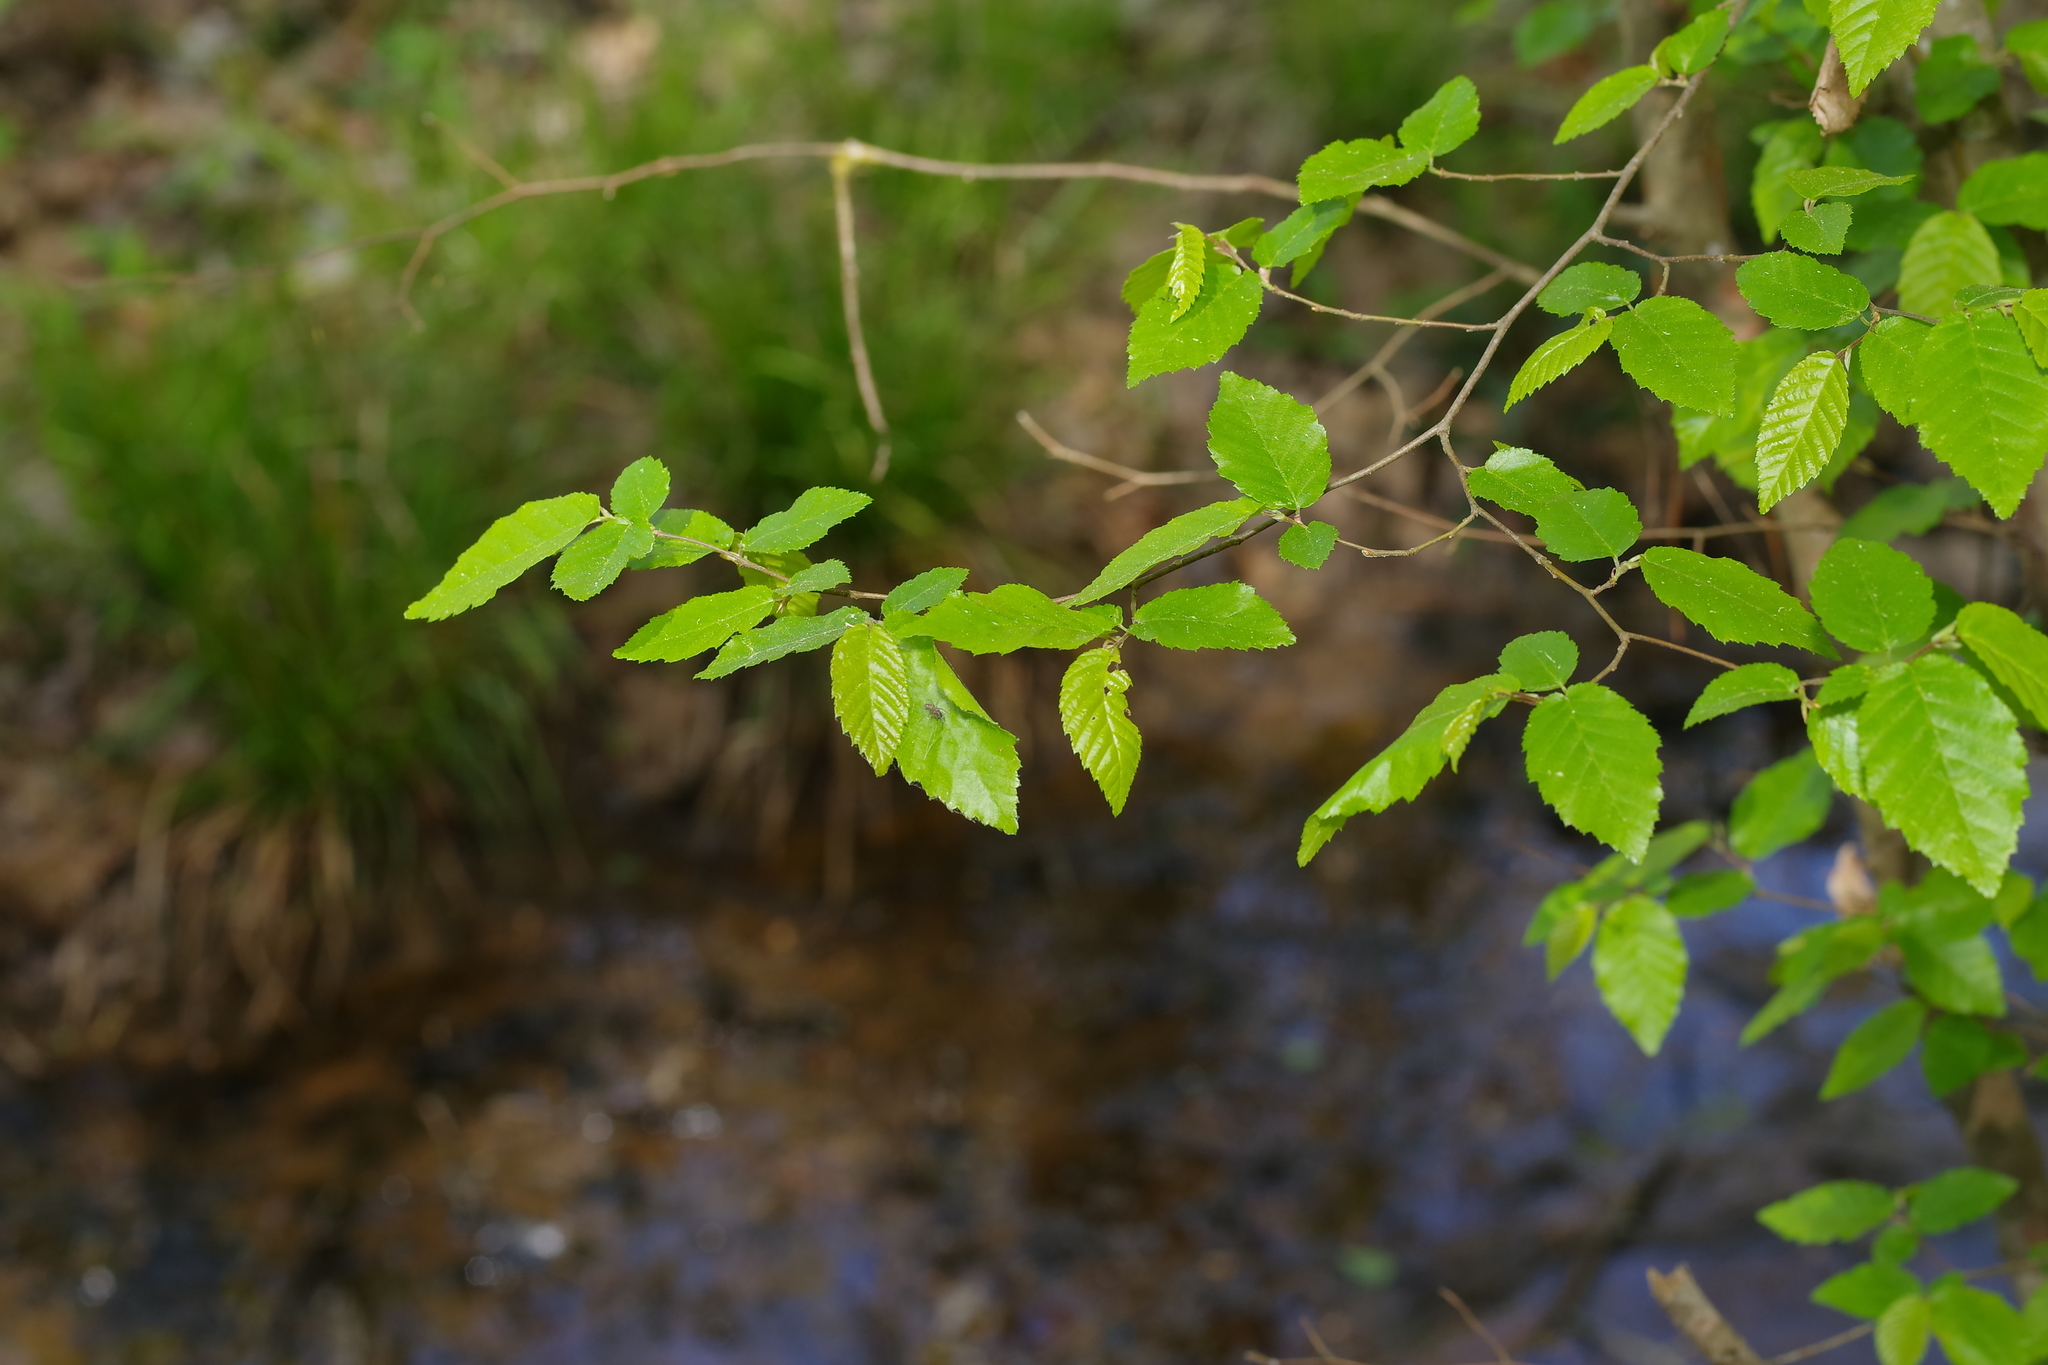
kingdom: Plantae
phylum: Tracheophyta
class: Magnoliopsida
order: Fagales
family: Betulaceae
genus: Carpinus
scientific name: Carpinus caroliniana
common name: American hornbeam
